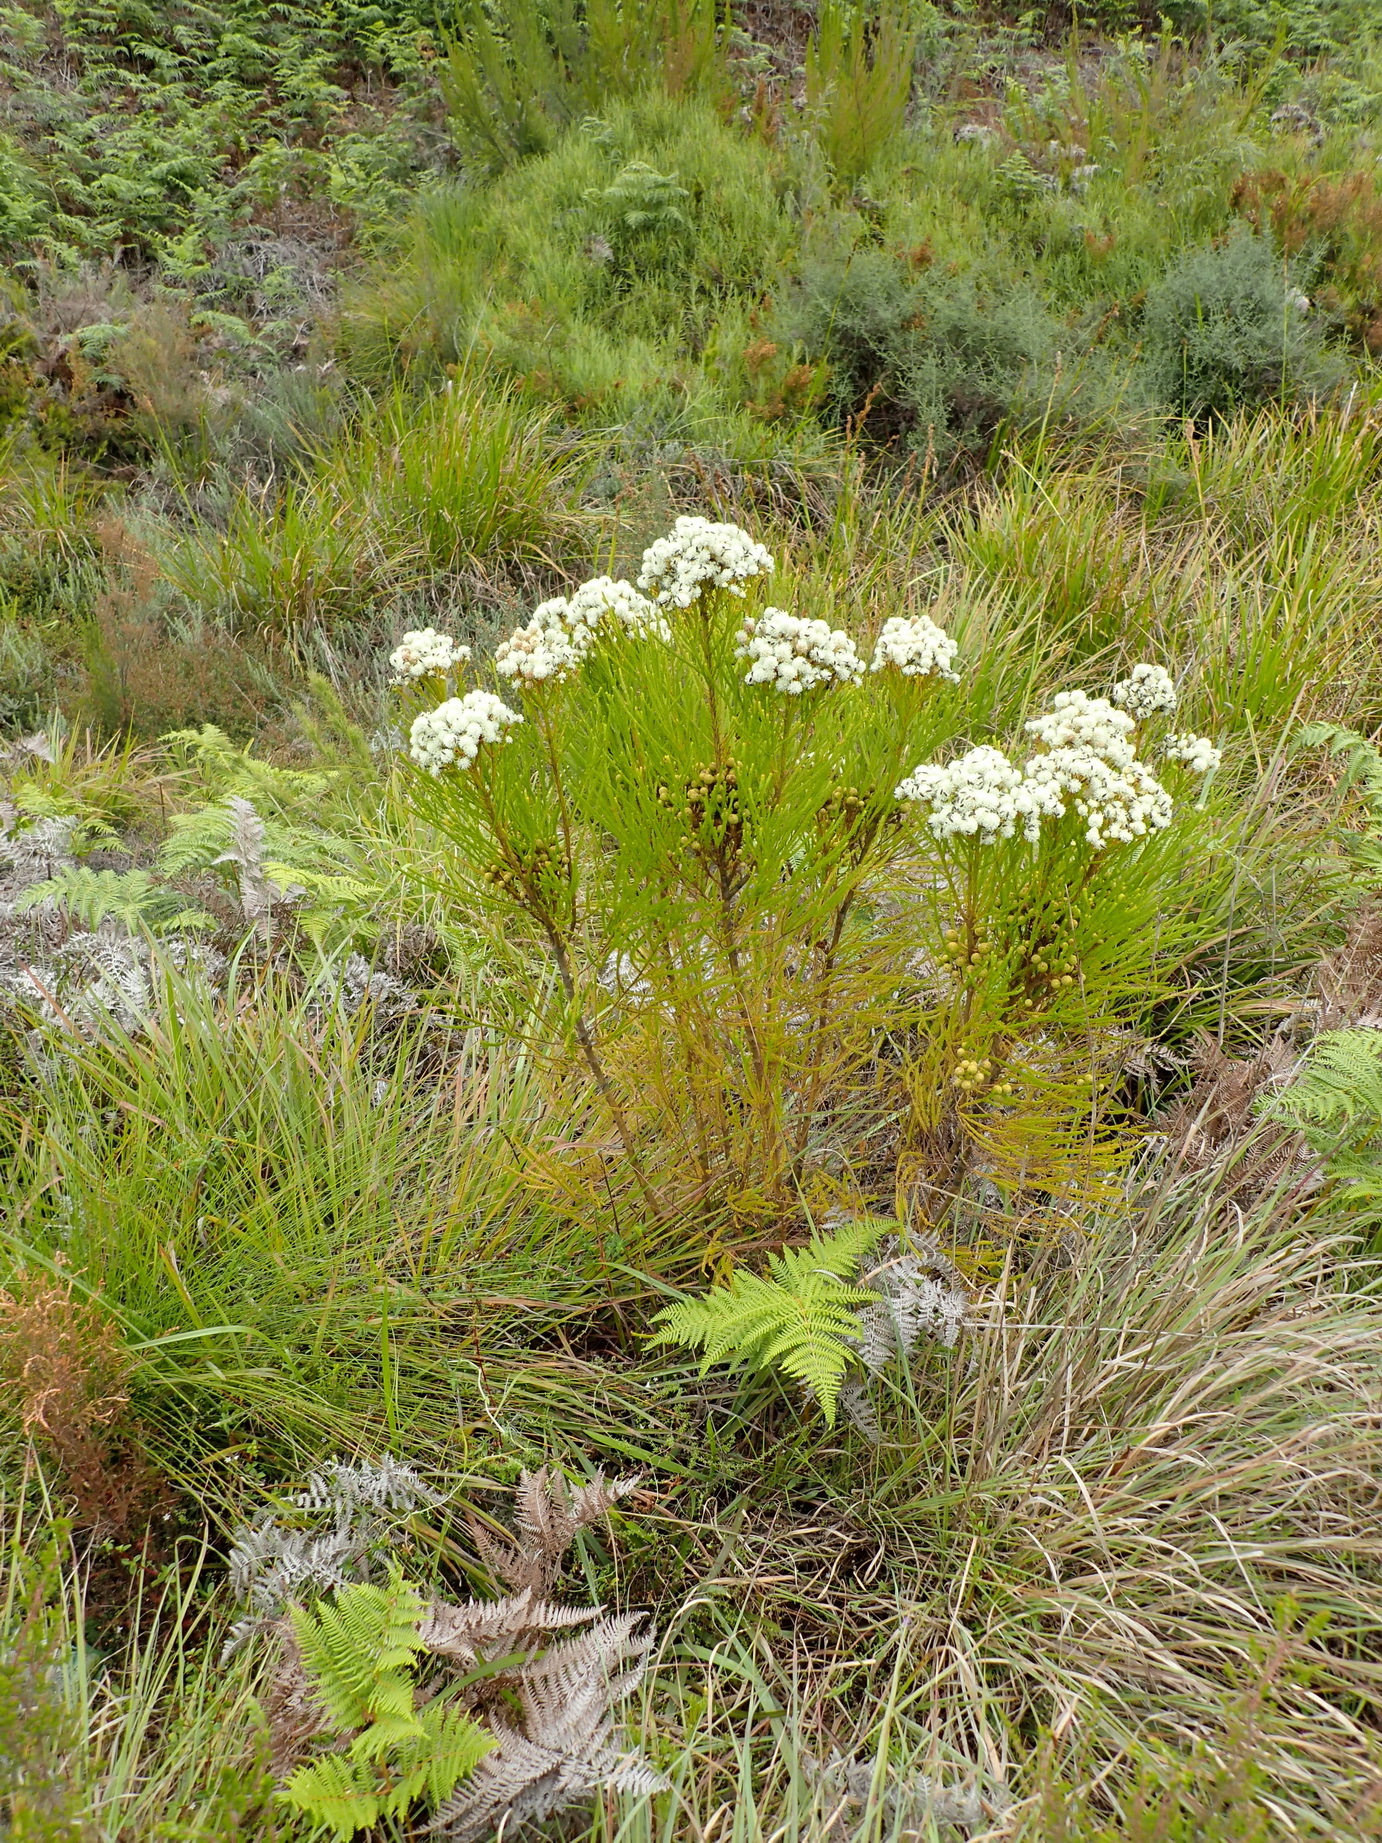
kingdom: Plantae
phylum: Tracheophyta
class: Magnoliopsida
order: Bruniales
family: Bruniaceae
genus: Berzelia
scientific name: Berzelia intermedia
